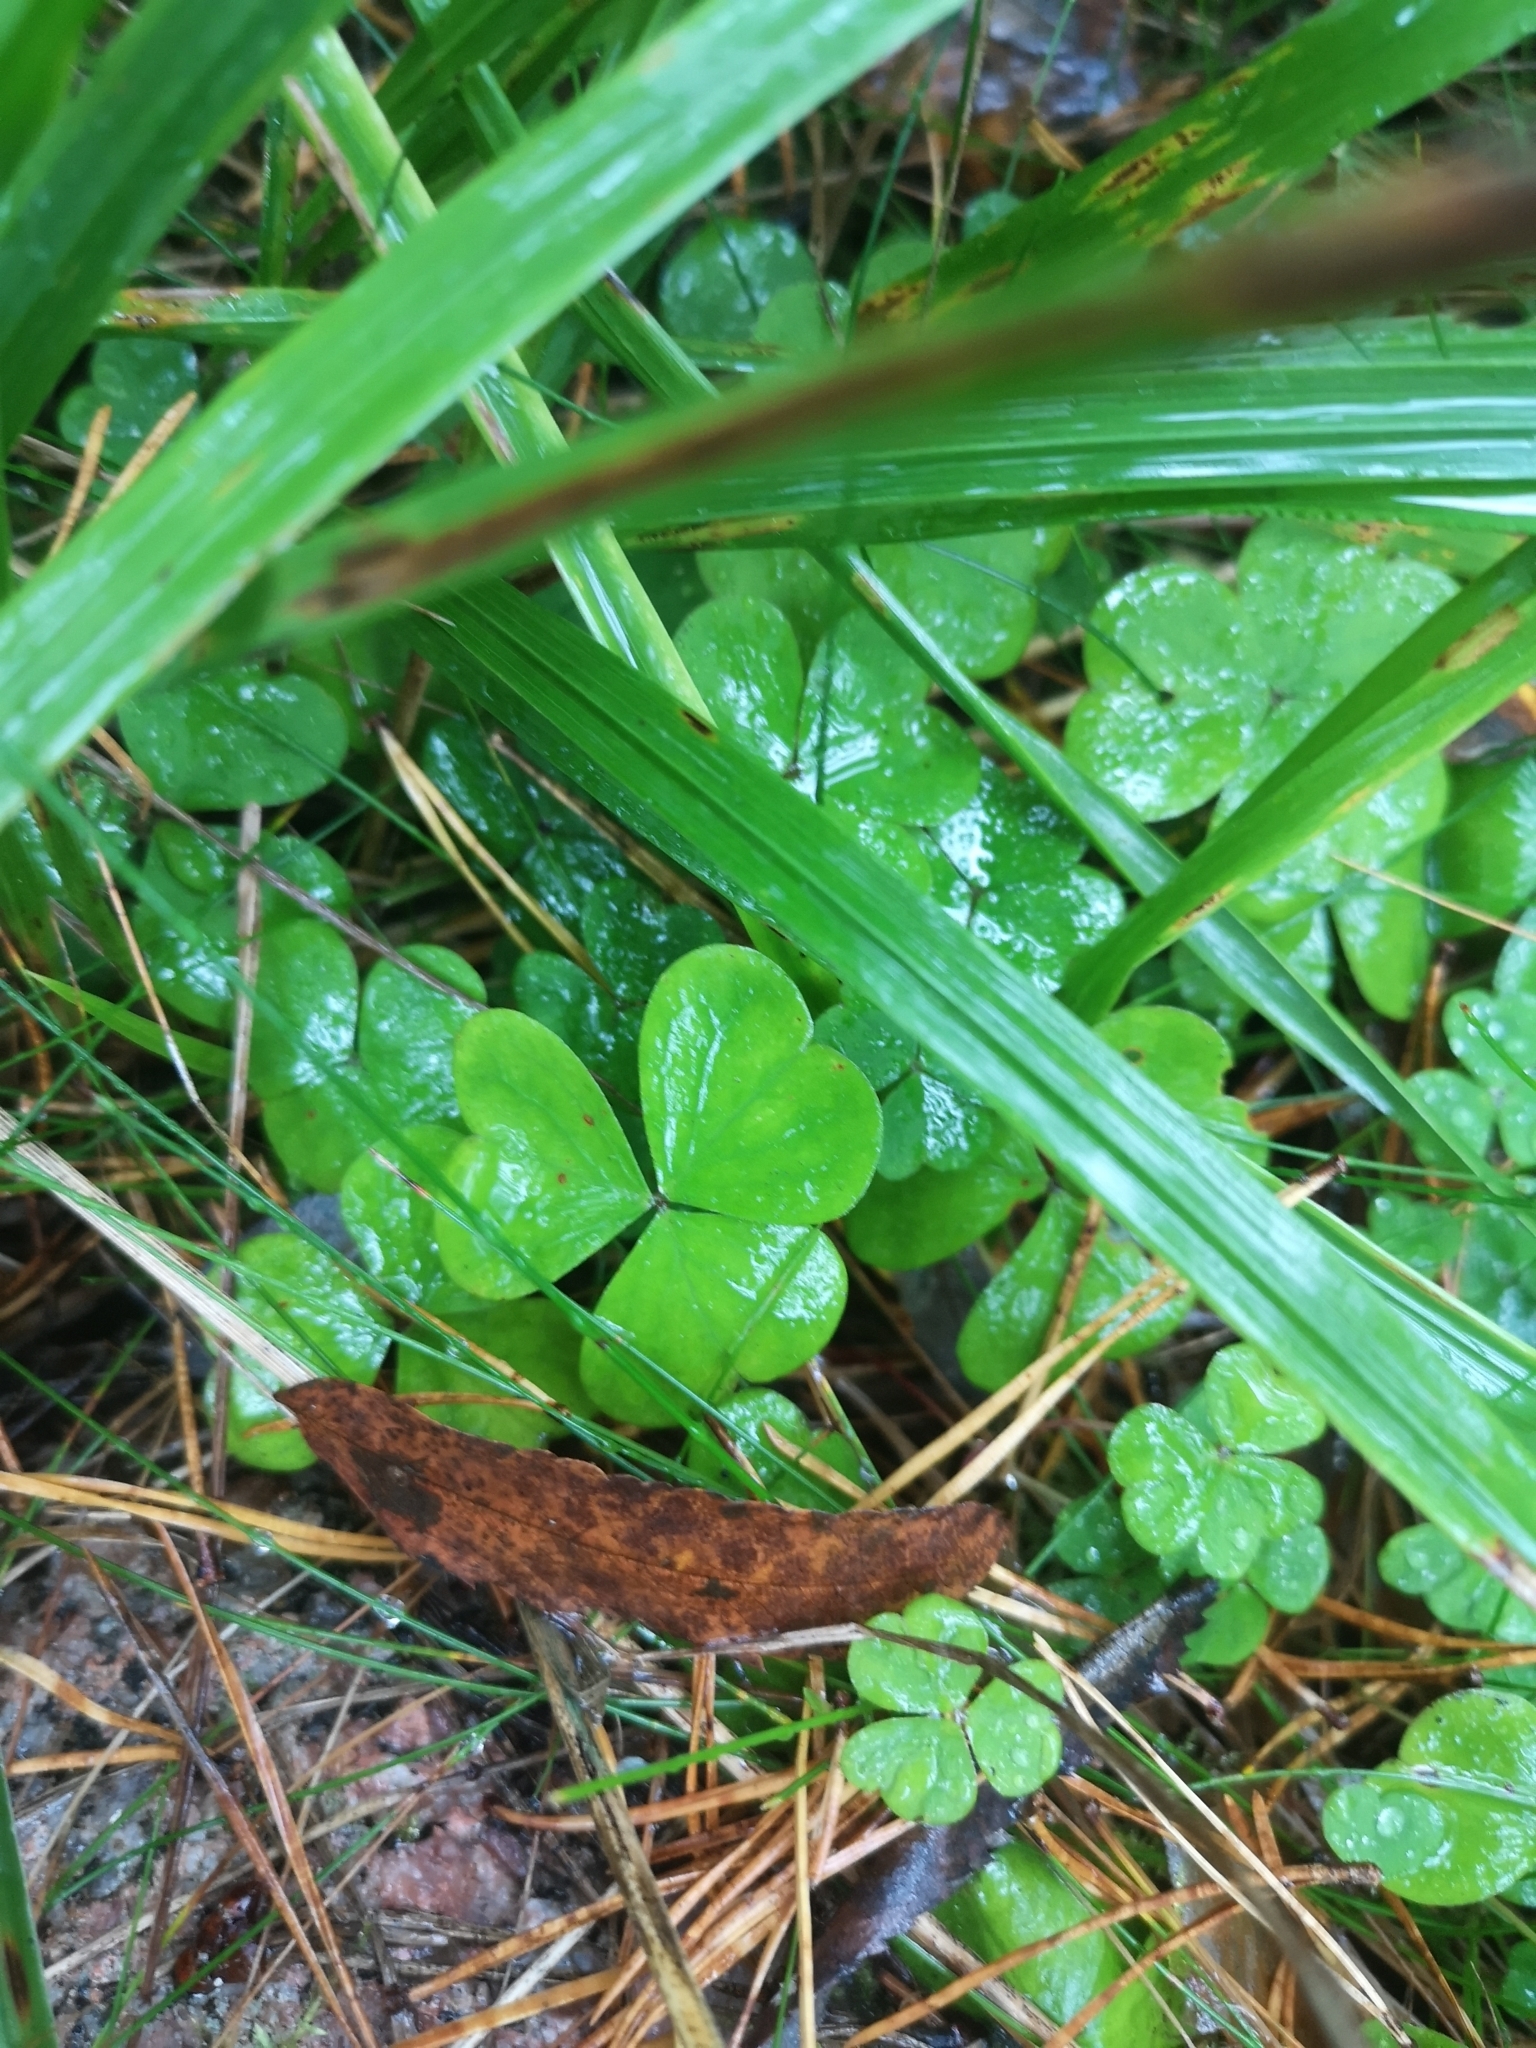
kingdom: Plantae
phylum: Tracheophyta
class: Magnoliopsida
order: Oxalidales
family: Oxalidaceae
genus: Oxalis
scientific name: Oxalis acetosella
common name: Wood-sorrel
